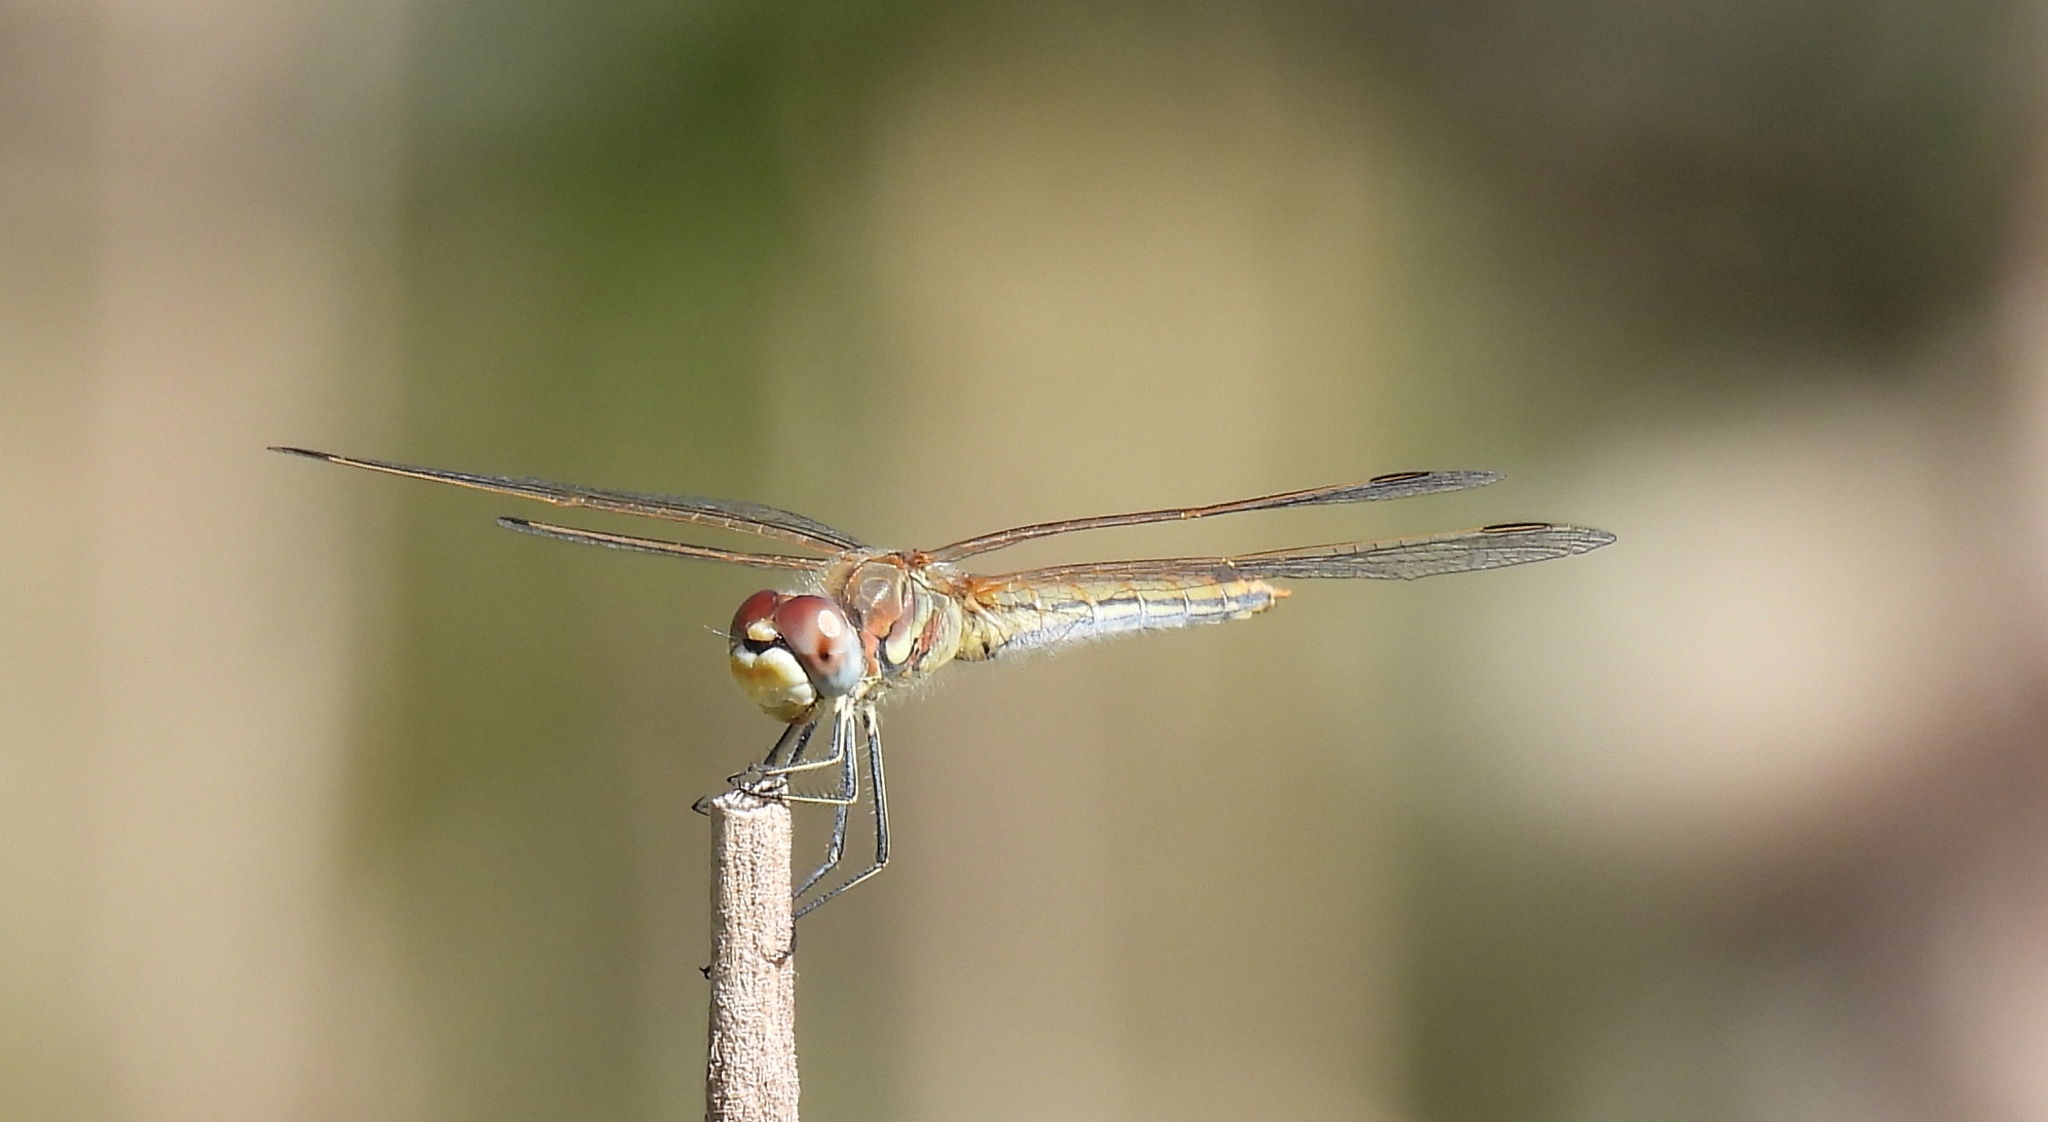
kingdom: Animalia
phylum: Arthropoda
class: Insecta
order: Odonata
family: Libellulidae
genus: Sympetrum
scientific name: Sympetrum fonscolombii
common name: Red-veined darter
